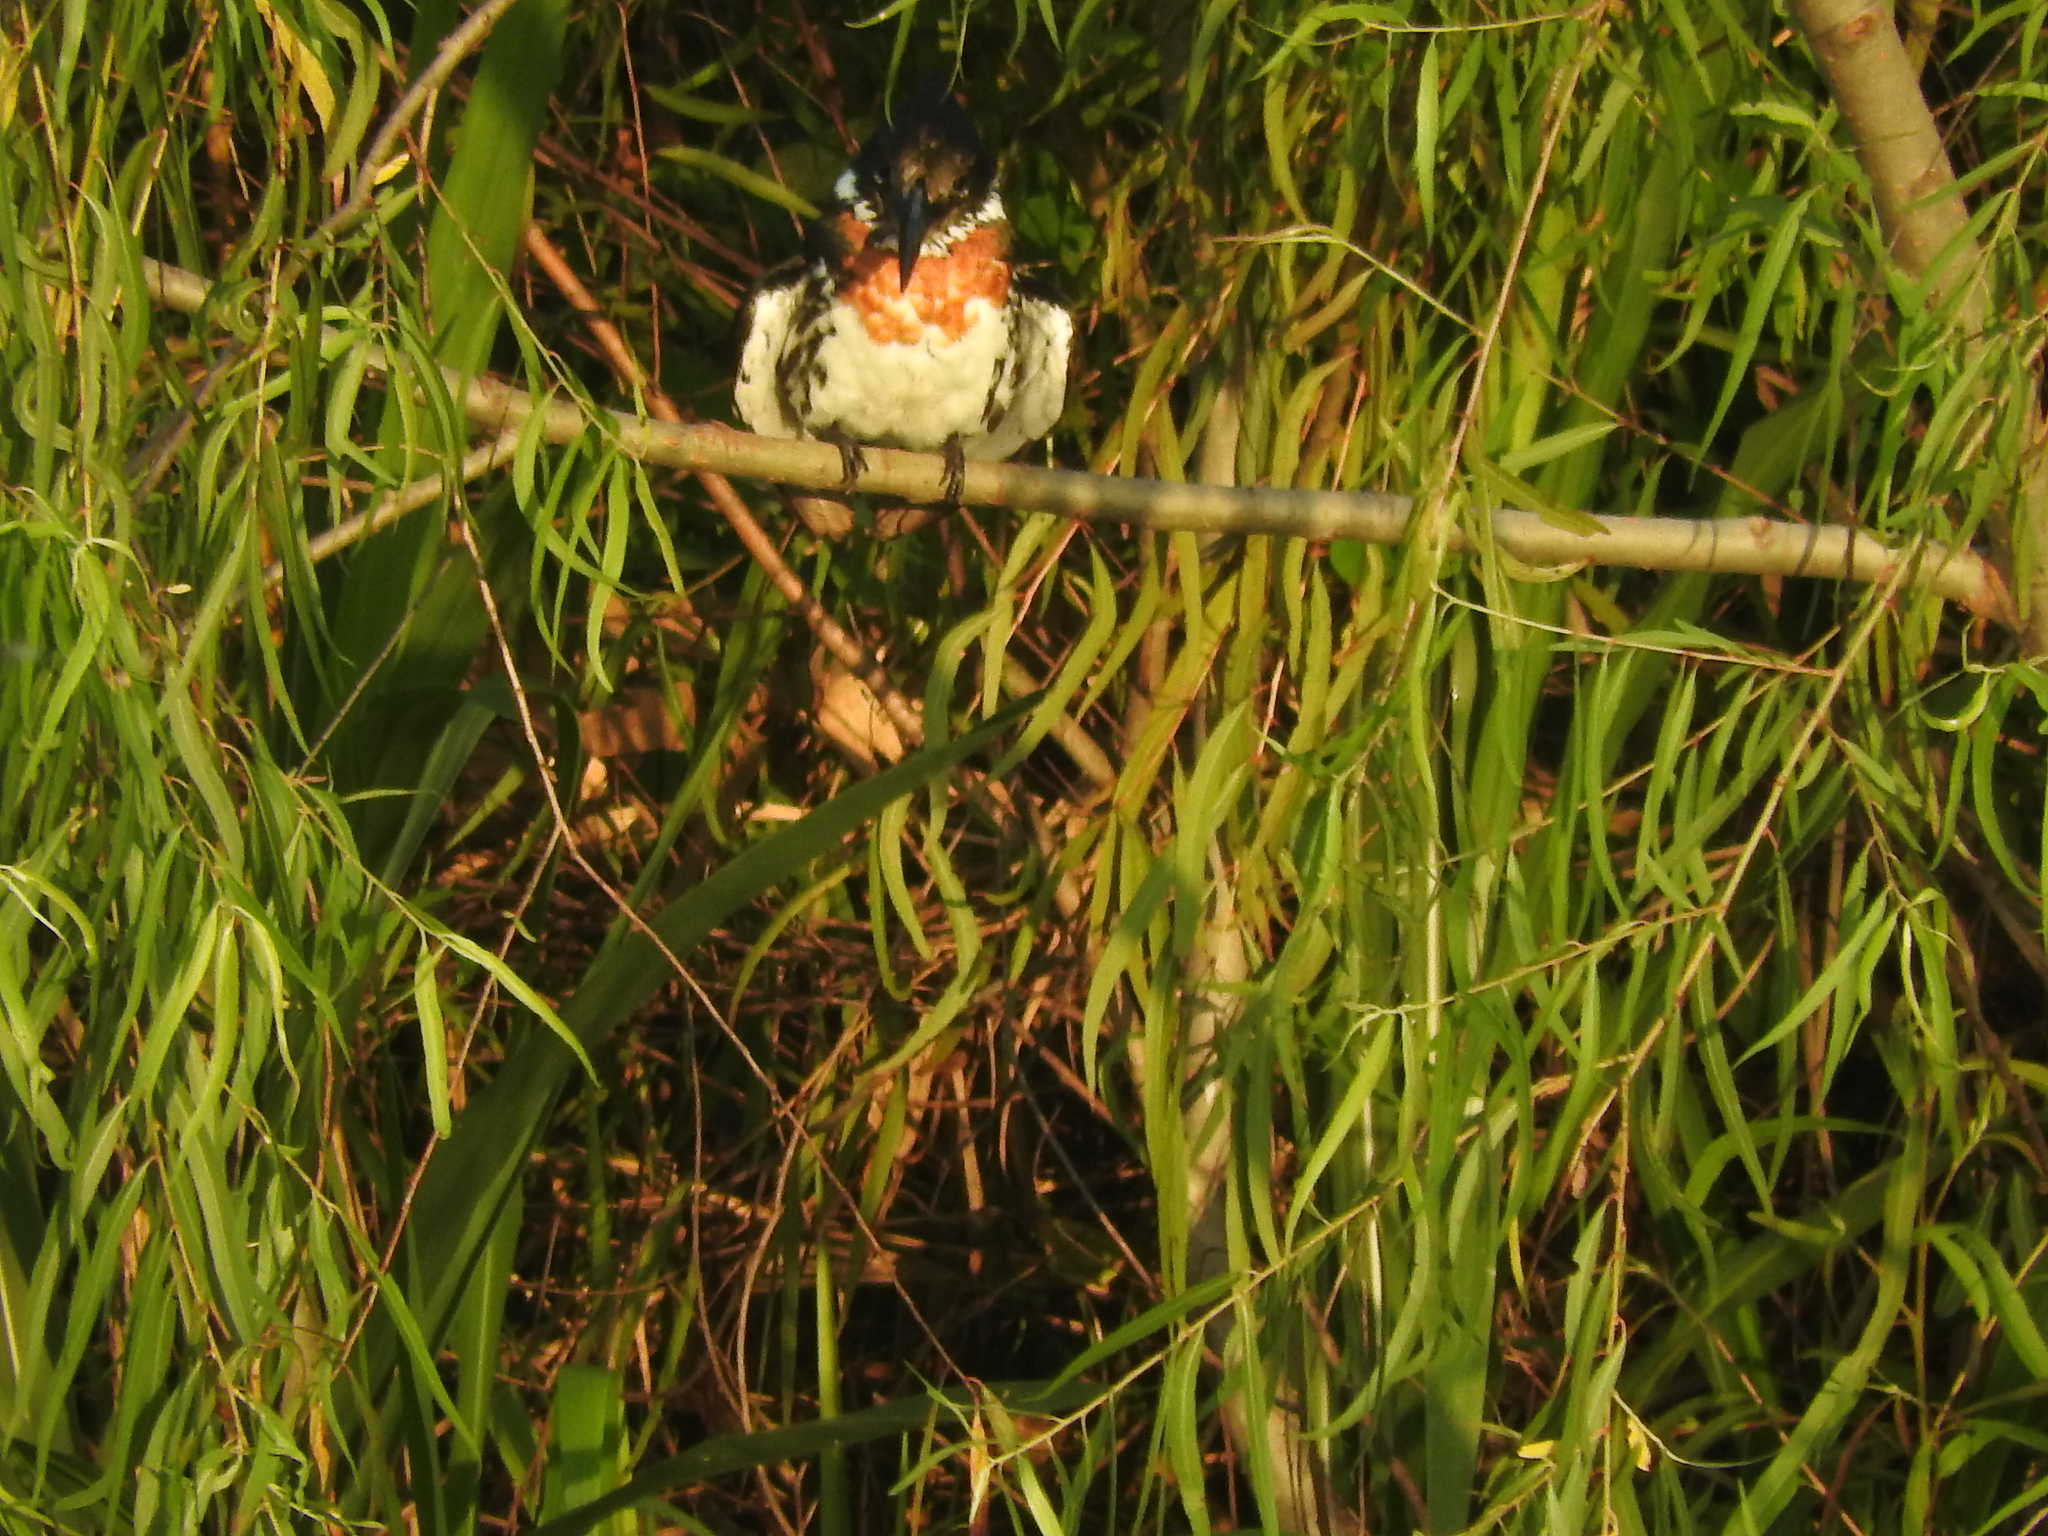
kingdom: Animalia
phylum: Chordata
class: Aves
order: Coraciiformes
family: Alcedinidae
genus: Chloroceryle
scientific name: Chloroceryle americana
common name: Green kingfisher
